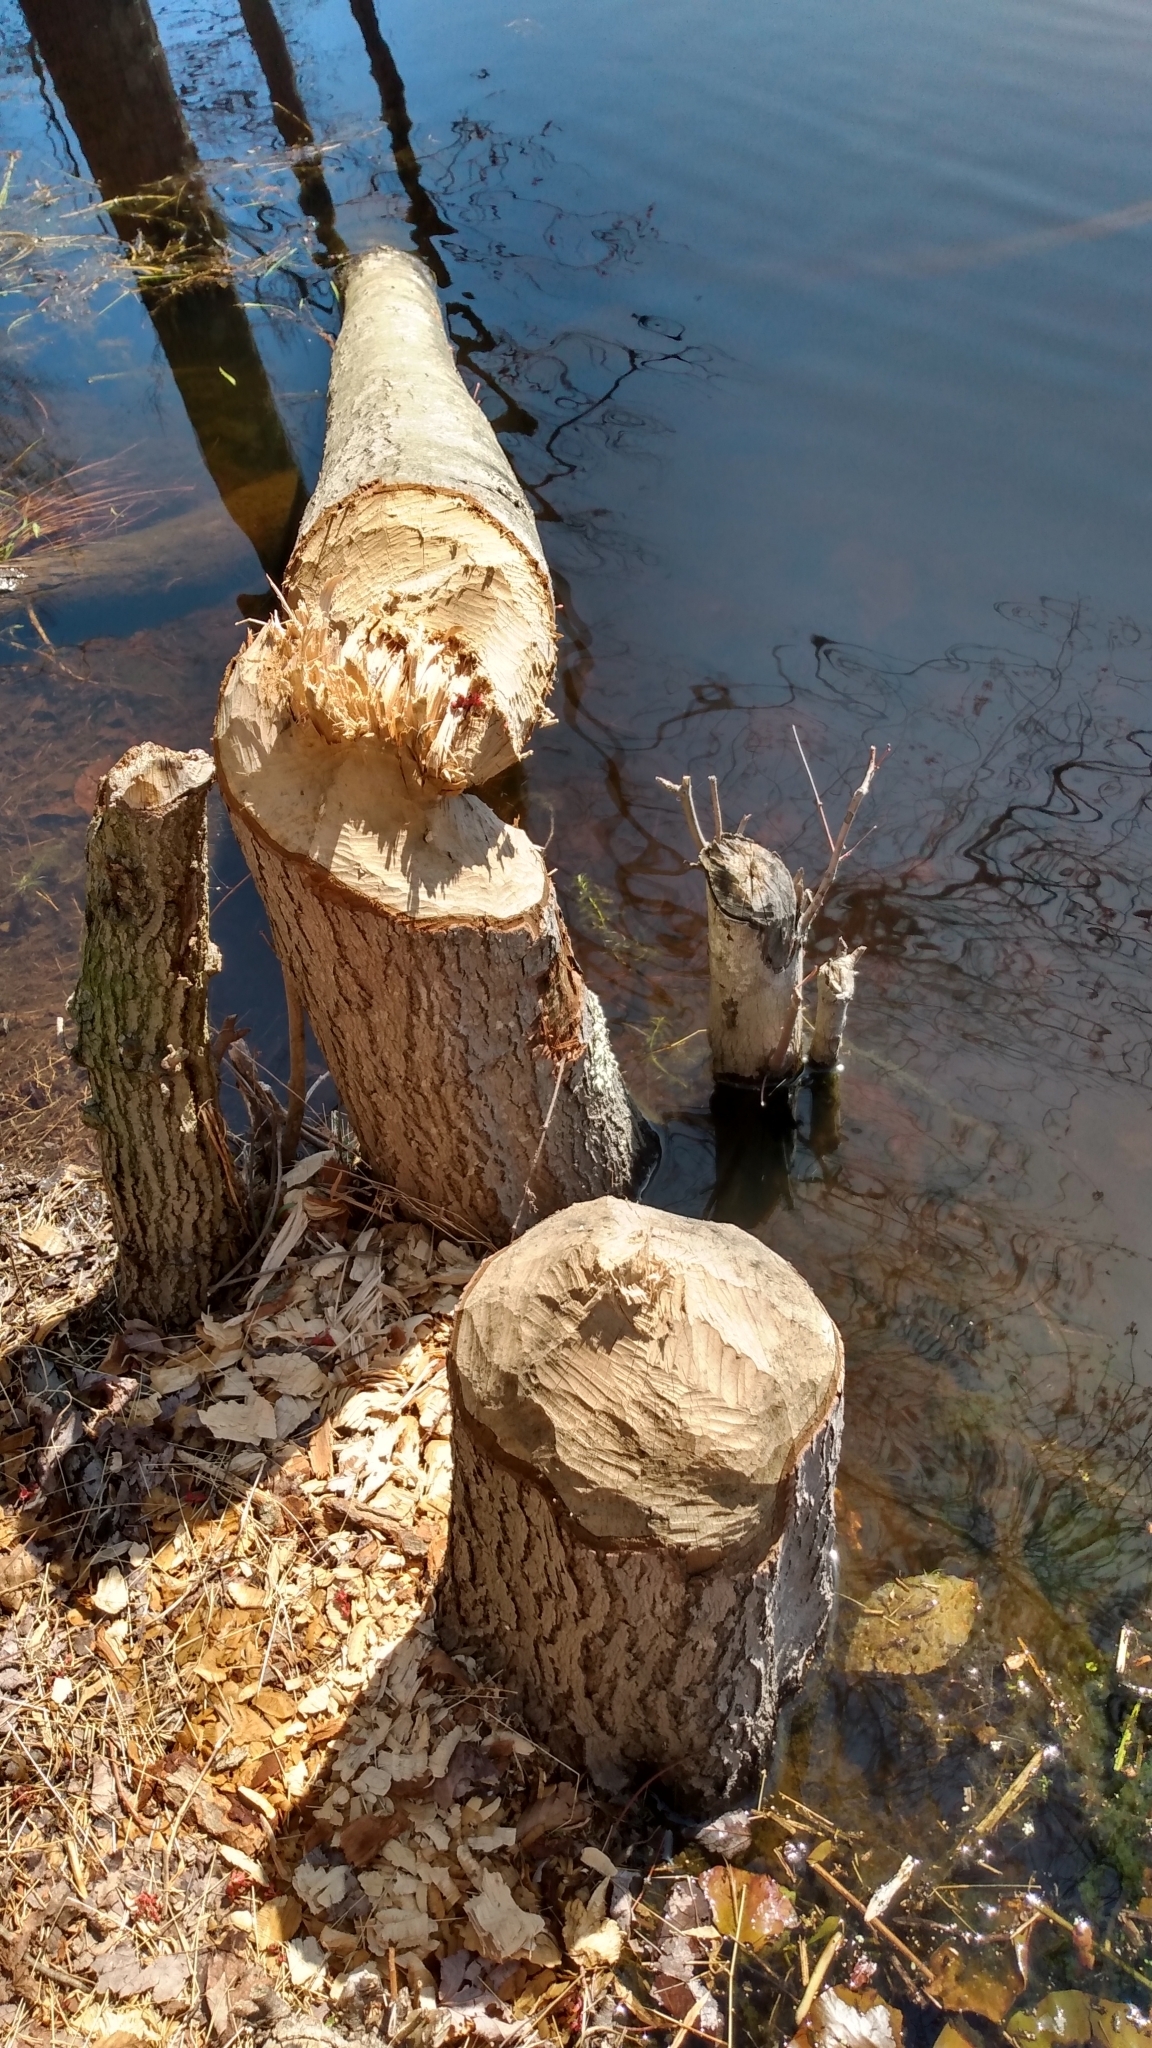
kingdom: Animalia
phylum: Chordata
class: Mammalia
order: Rodentia
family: Castoridae
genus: Castor
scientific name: Castor canadensis
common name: American beaver
